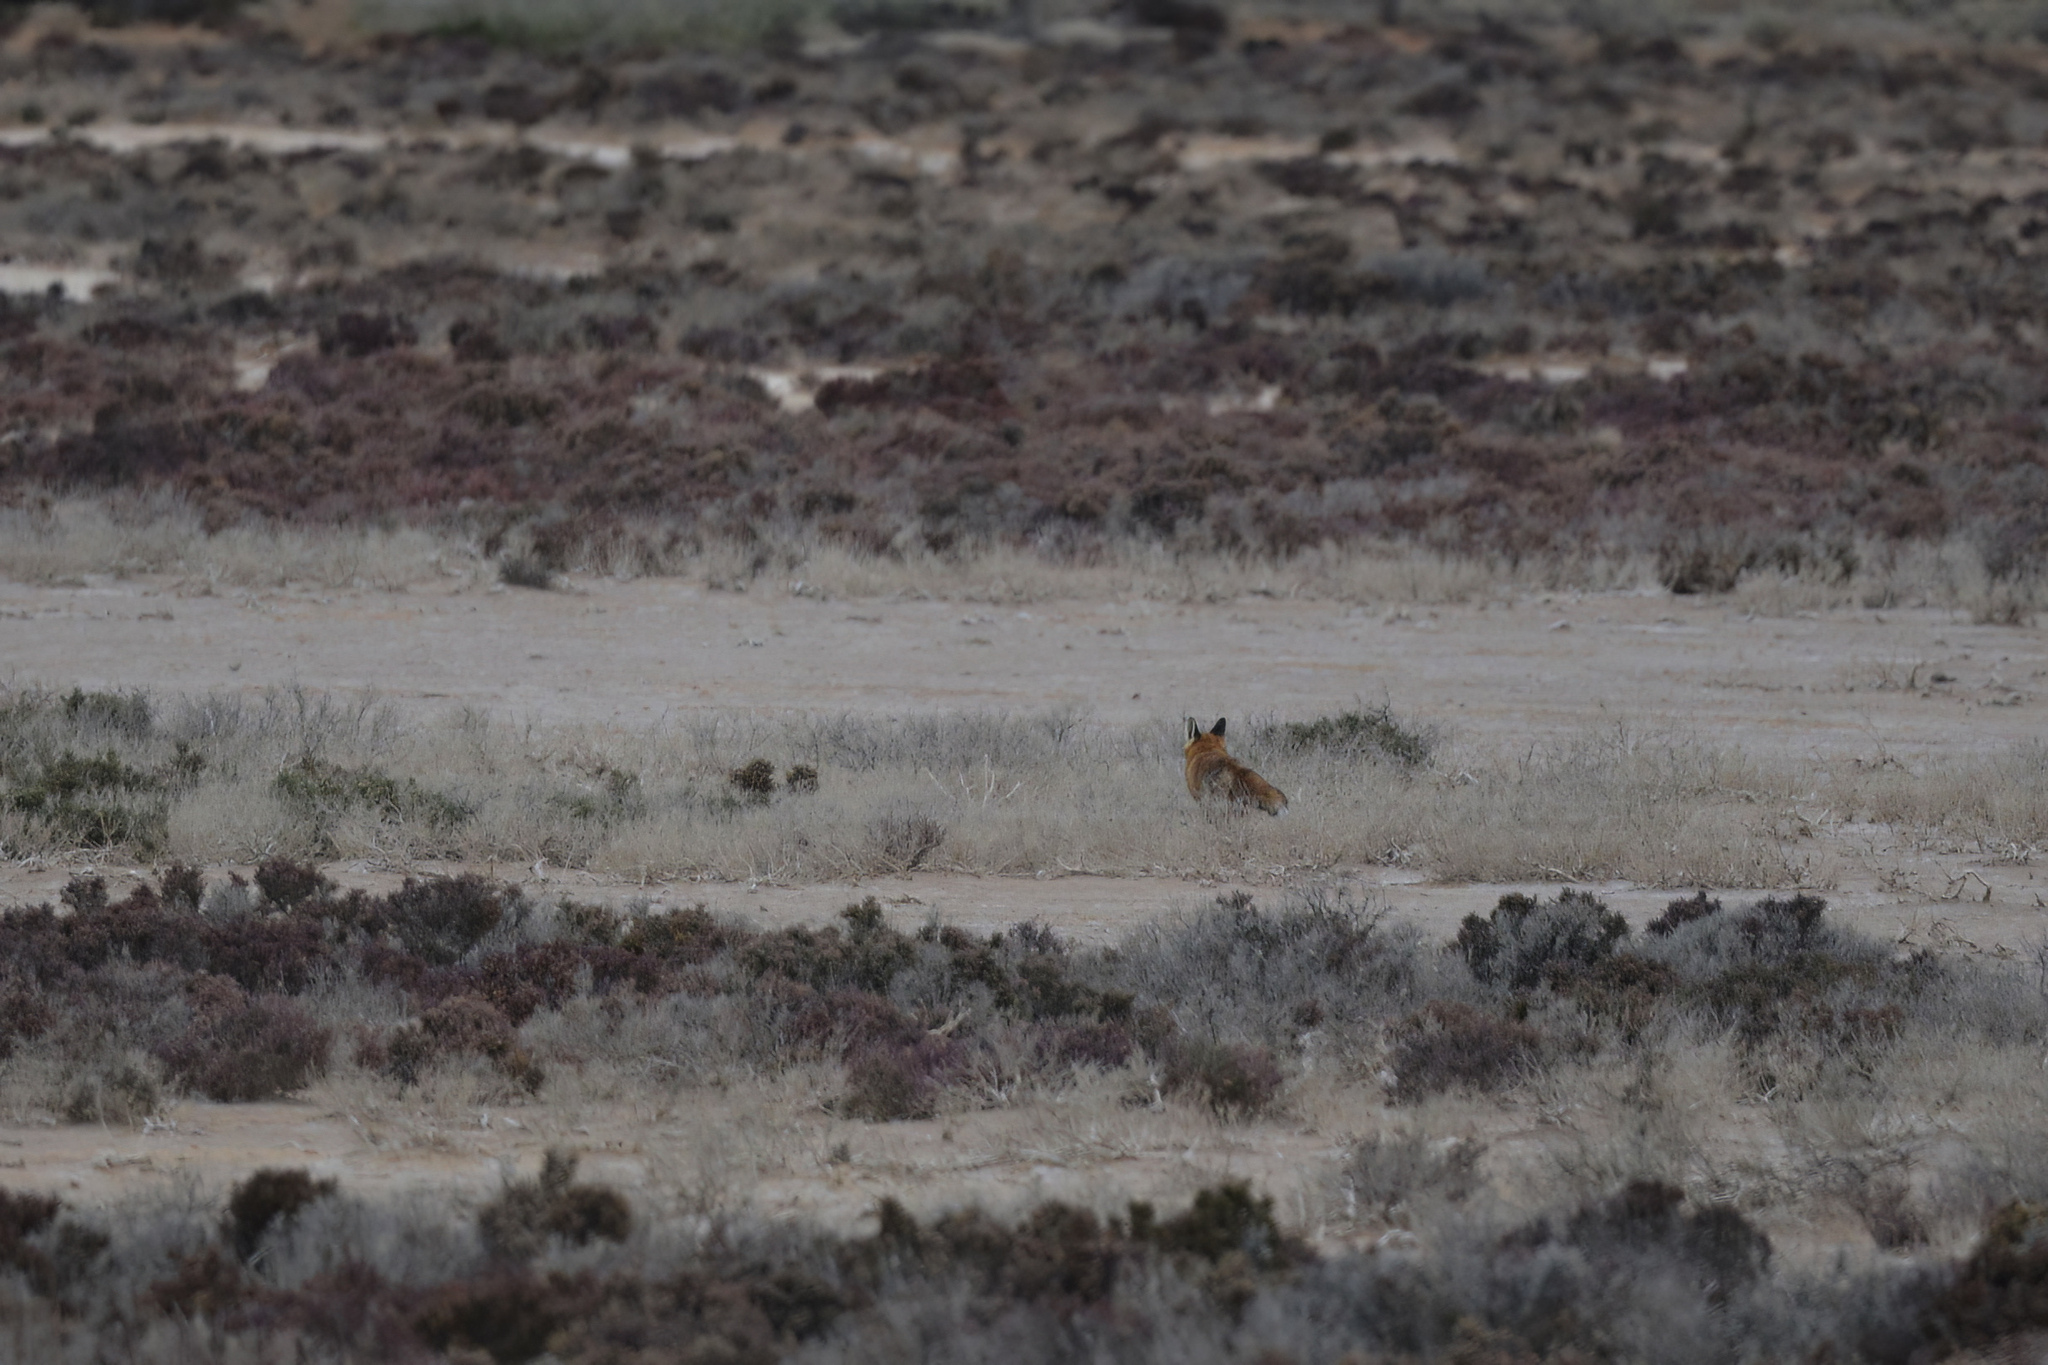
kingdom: Animalia
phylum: Chordata
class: Mammalia
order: Carnivora
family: Canidae
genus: Vulpes
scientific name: Vulpes vulpes
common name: Red fox
